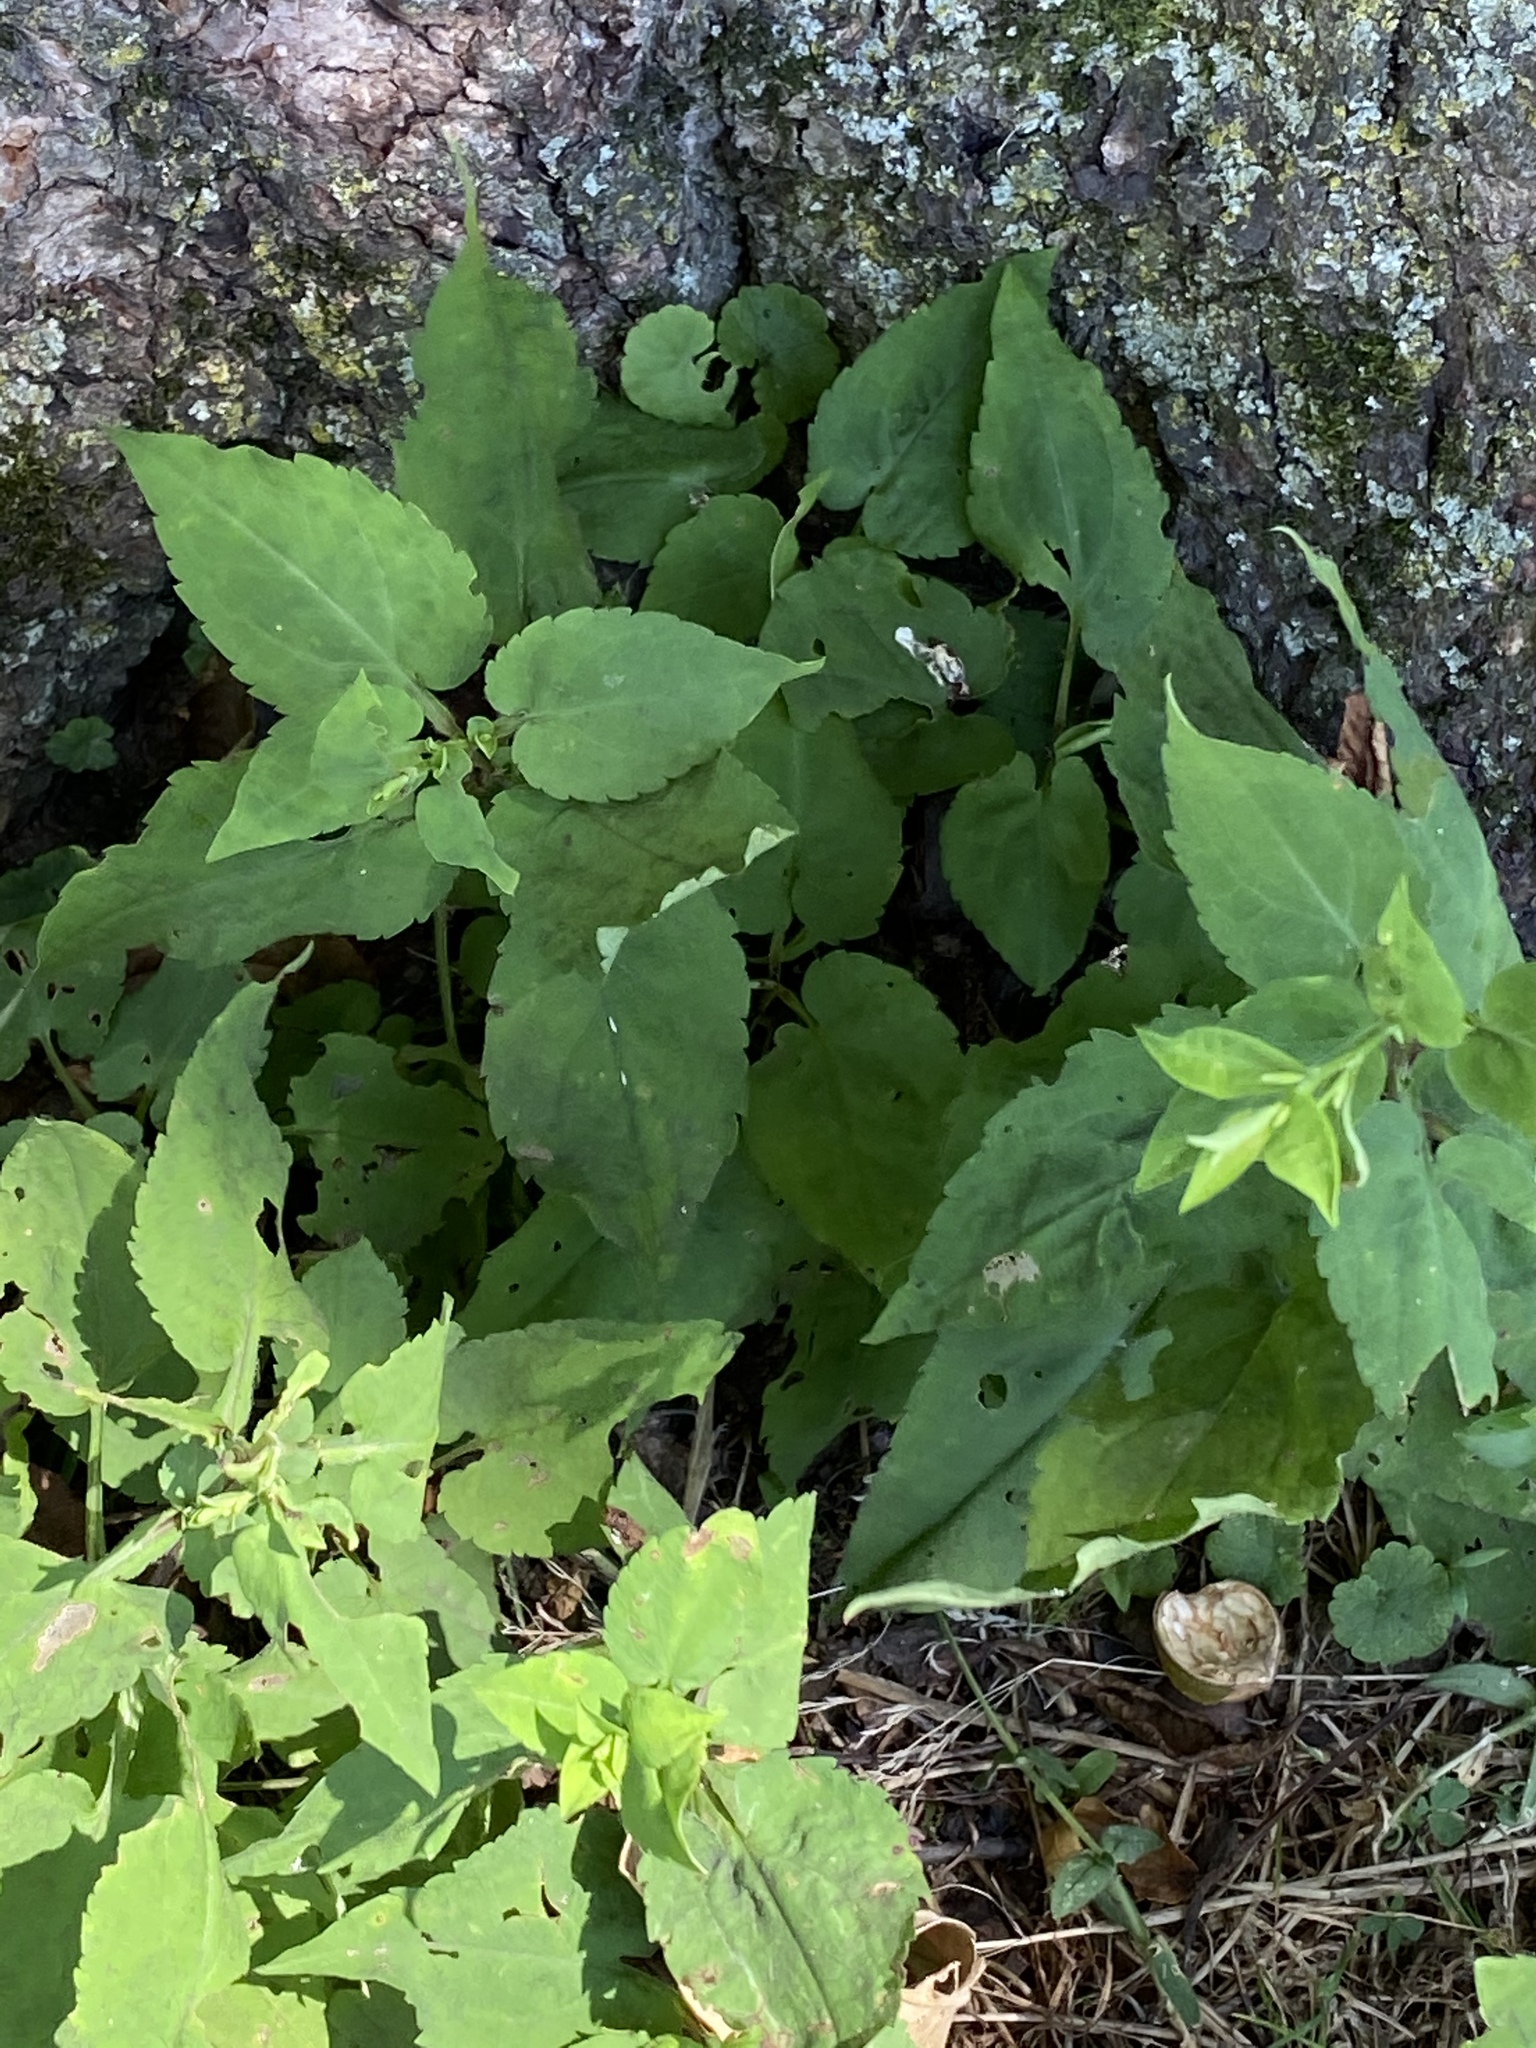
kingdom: Plantae
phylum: Tracheophyta
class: Magnoliopsida
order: Asterales
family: Asteraceae
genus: Symphyotrichum
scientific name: Symphyotrichum cordifolium
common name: Beeweed
